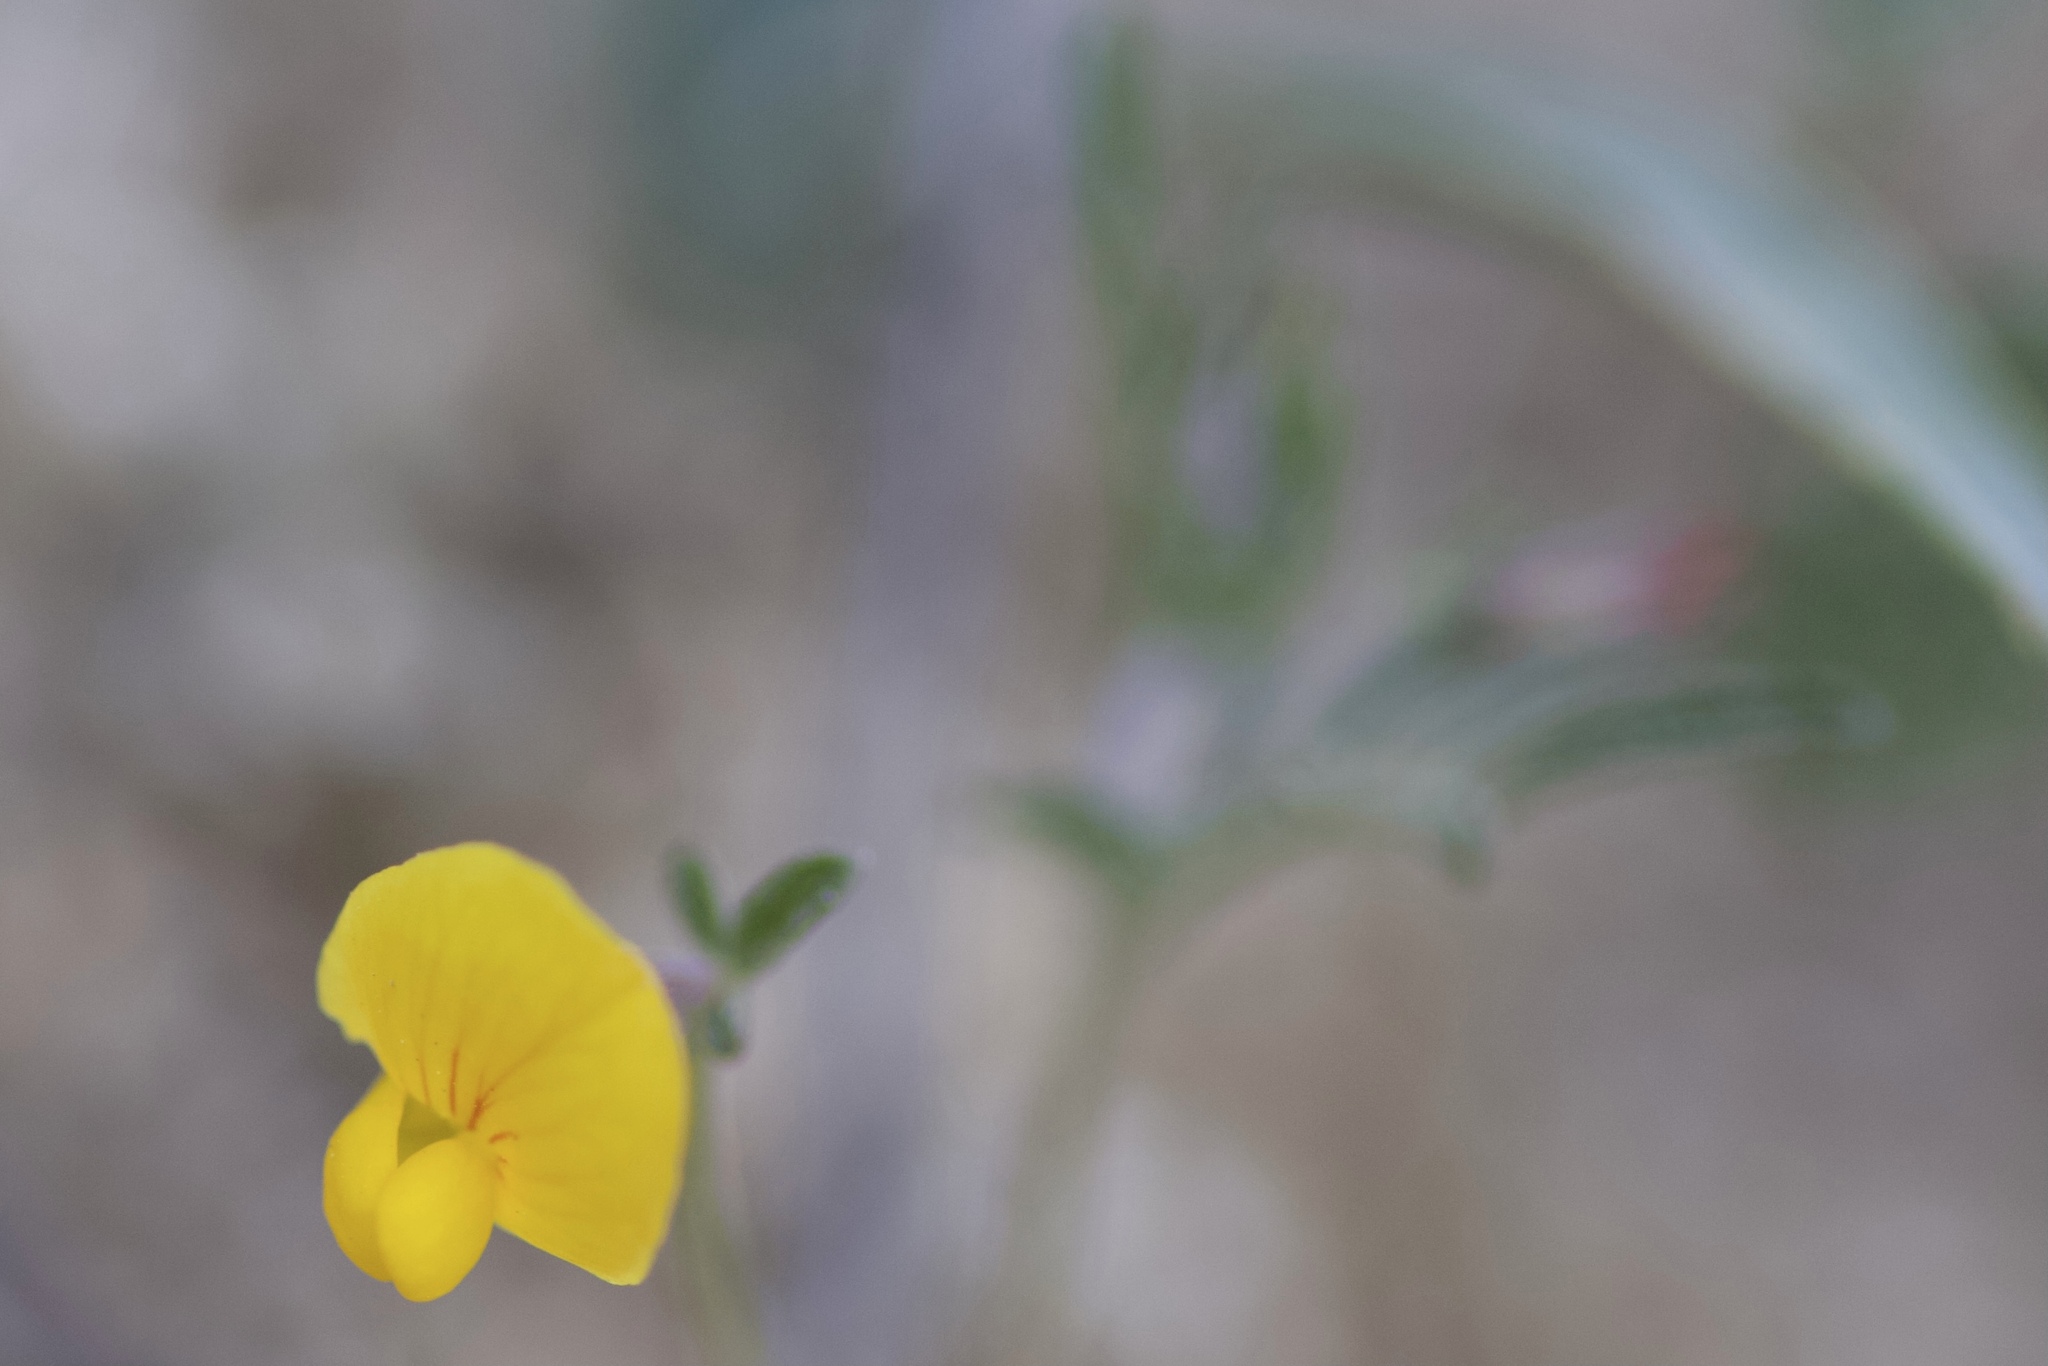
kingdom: Plantae
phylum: Tracheophyta
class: Magnoliopsida
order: Fabales
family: Fabaceae
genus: Acmispon
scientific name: Acmispon strigosus
